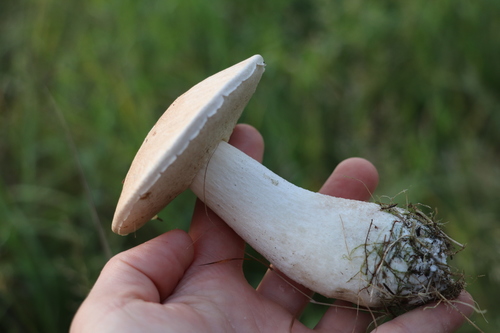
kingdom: Fungi
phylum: Basidiomycota
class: Agaricomycetes
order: Boletales
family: Boletaceae
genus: Leccinum
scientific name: Leccinum
